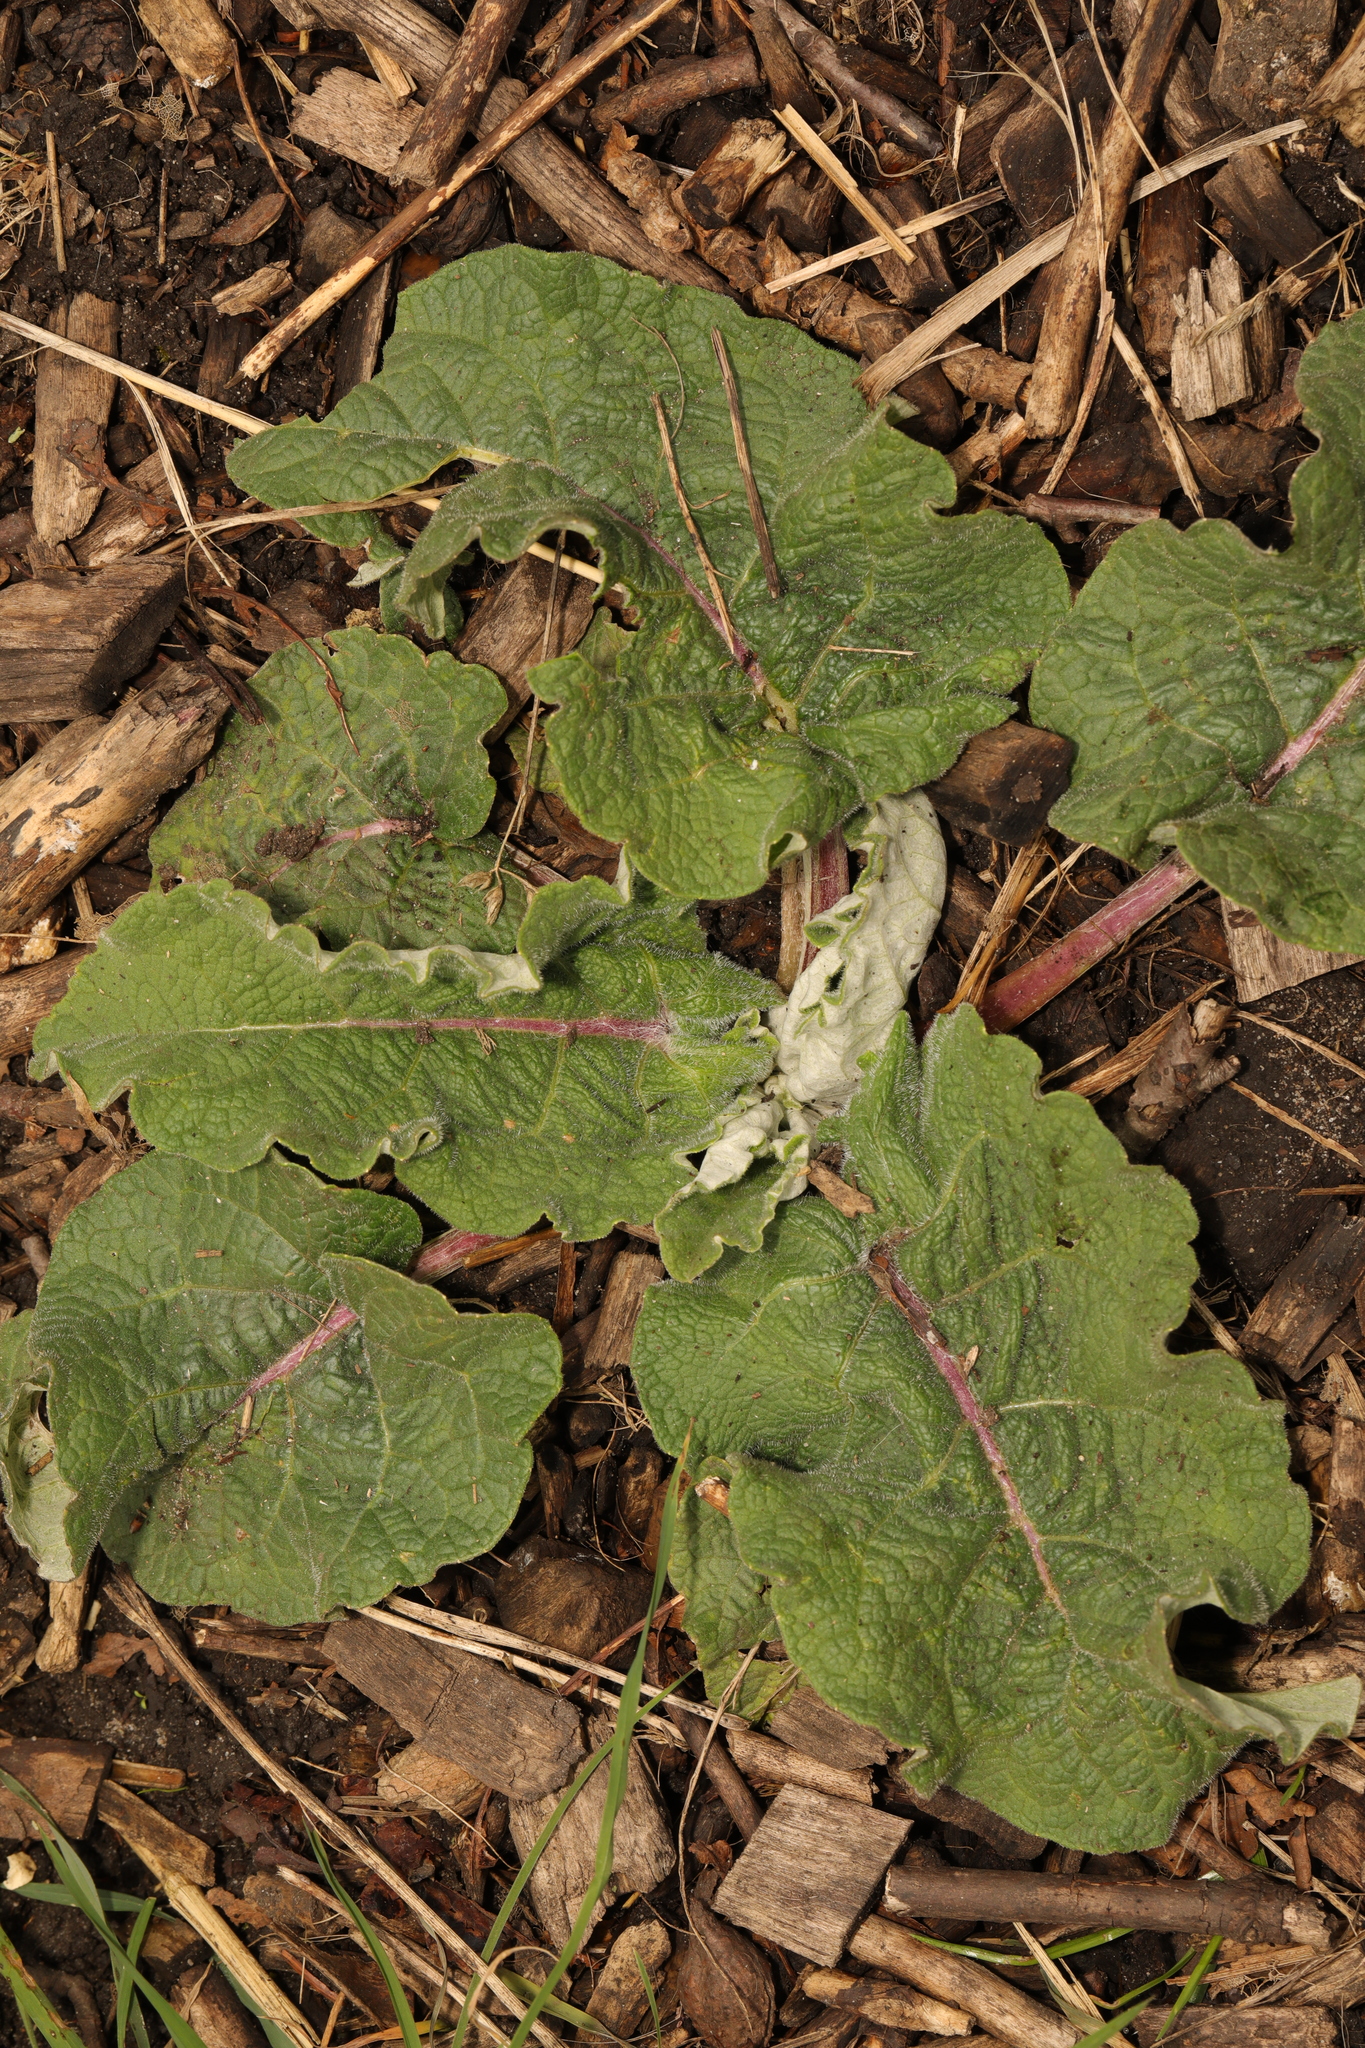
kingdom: Plantae
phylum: Tracheophyta
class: Magnoliopsida
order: Asterales
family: Asteraceae
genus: Arctium
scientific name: Arctium minus
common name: Lesser burdock
